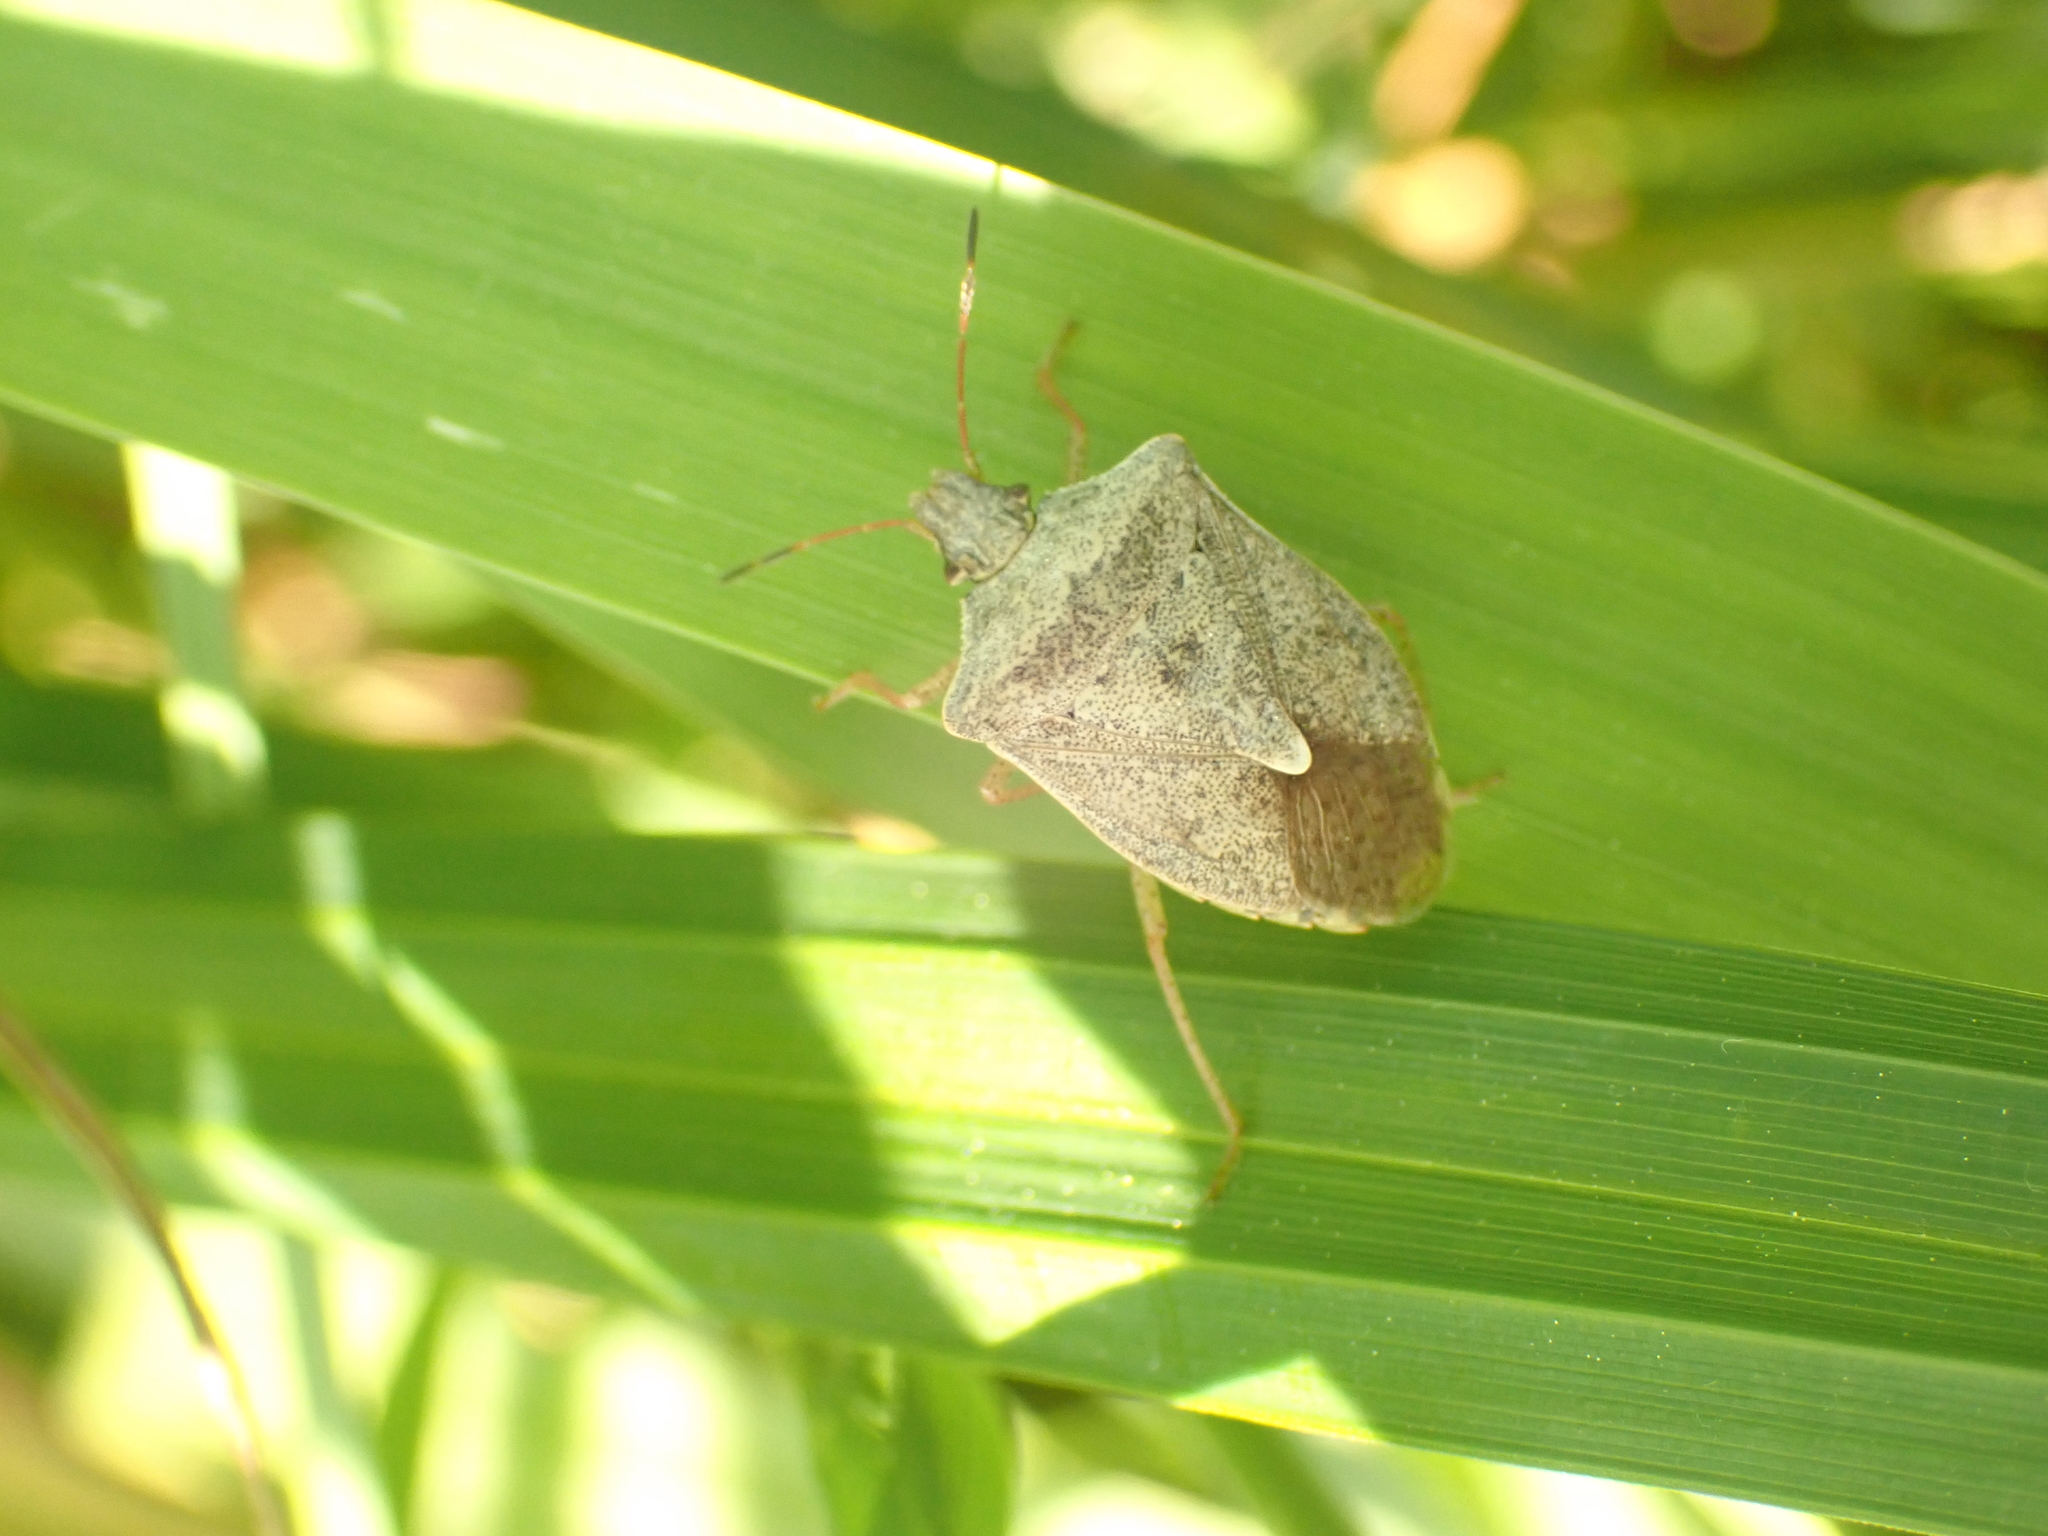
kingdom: Animalia
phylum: Arthropoda
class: Insecta
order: Hemiptera
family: Pentatomidae
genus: Euschistus
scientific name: Euschistus servus
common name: Brown stink bug
